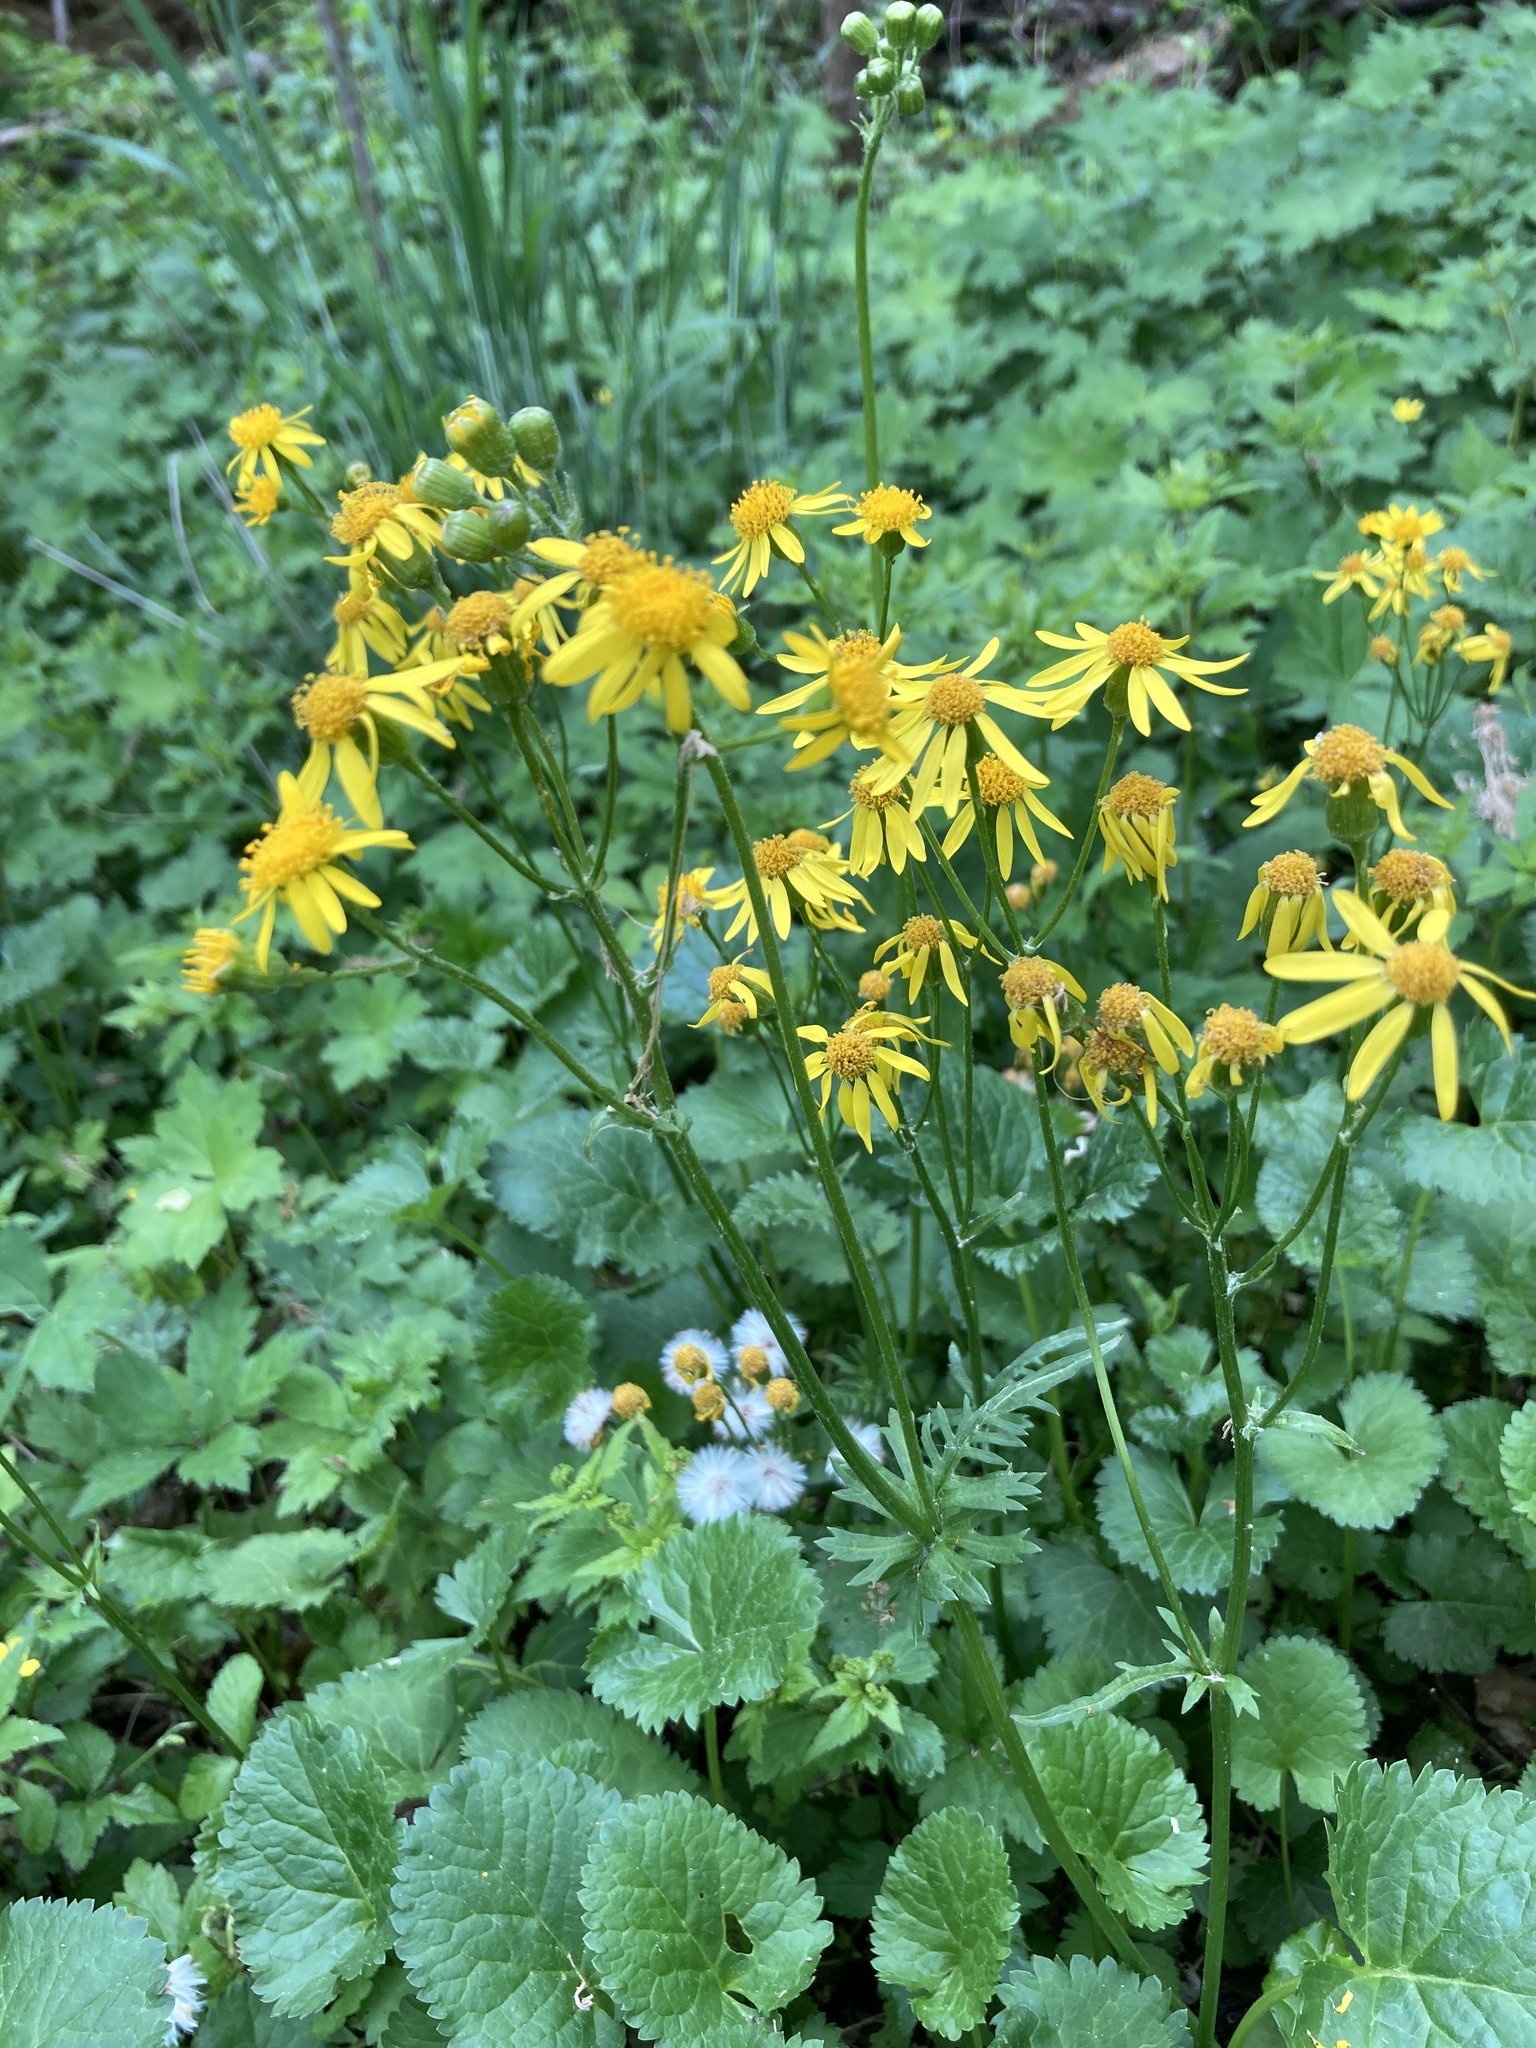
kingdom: Plantae
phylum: Tracheophyta
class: Magnoliopsida
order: Asterales
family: Asteraceae
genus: Packera
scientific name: Packera aurea
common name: Golden groundsel
